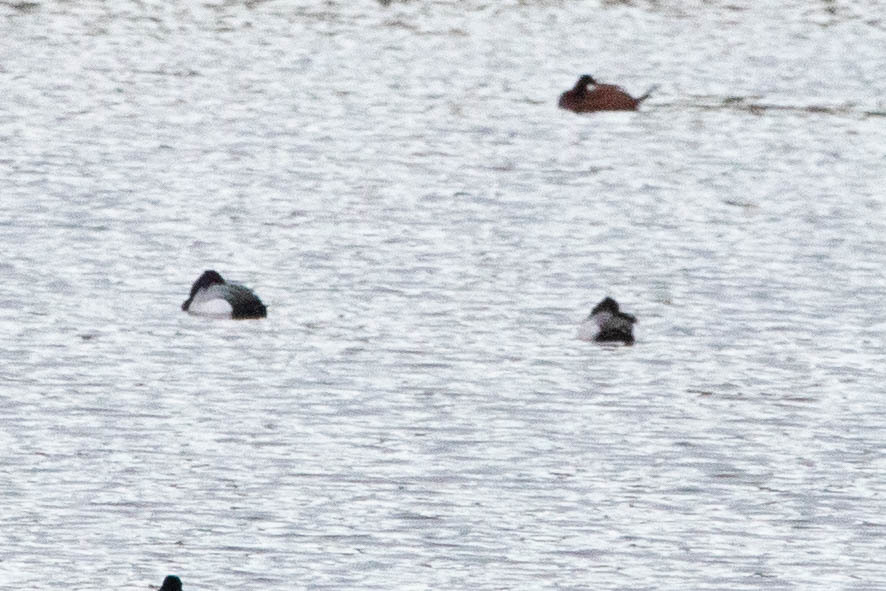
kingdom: Animalia
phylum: Chordata
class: Aves
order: Anseriformes
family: Anatidae
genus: Aythya
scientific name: Aythya affinis
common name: Lesser scaup
